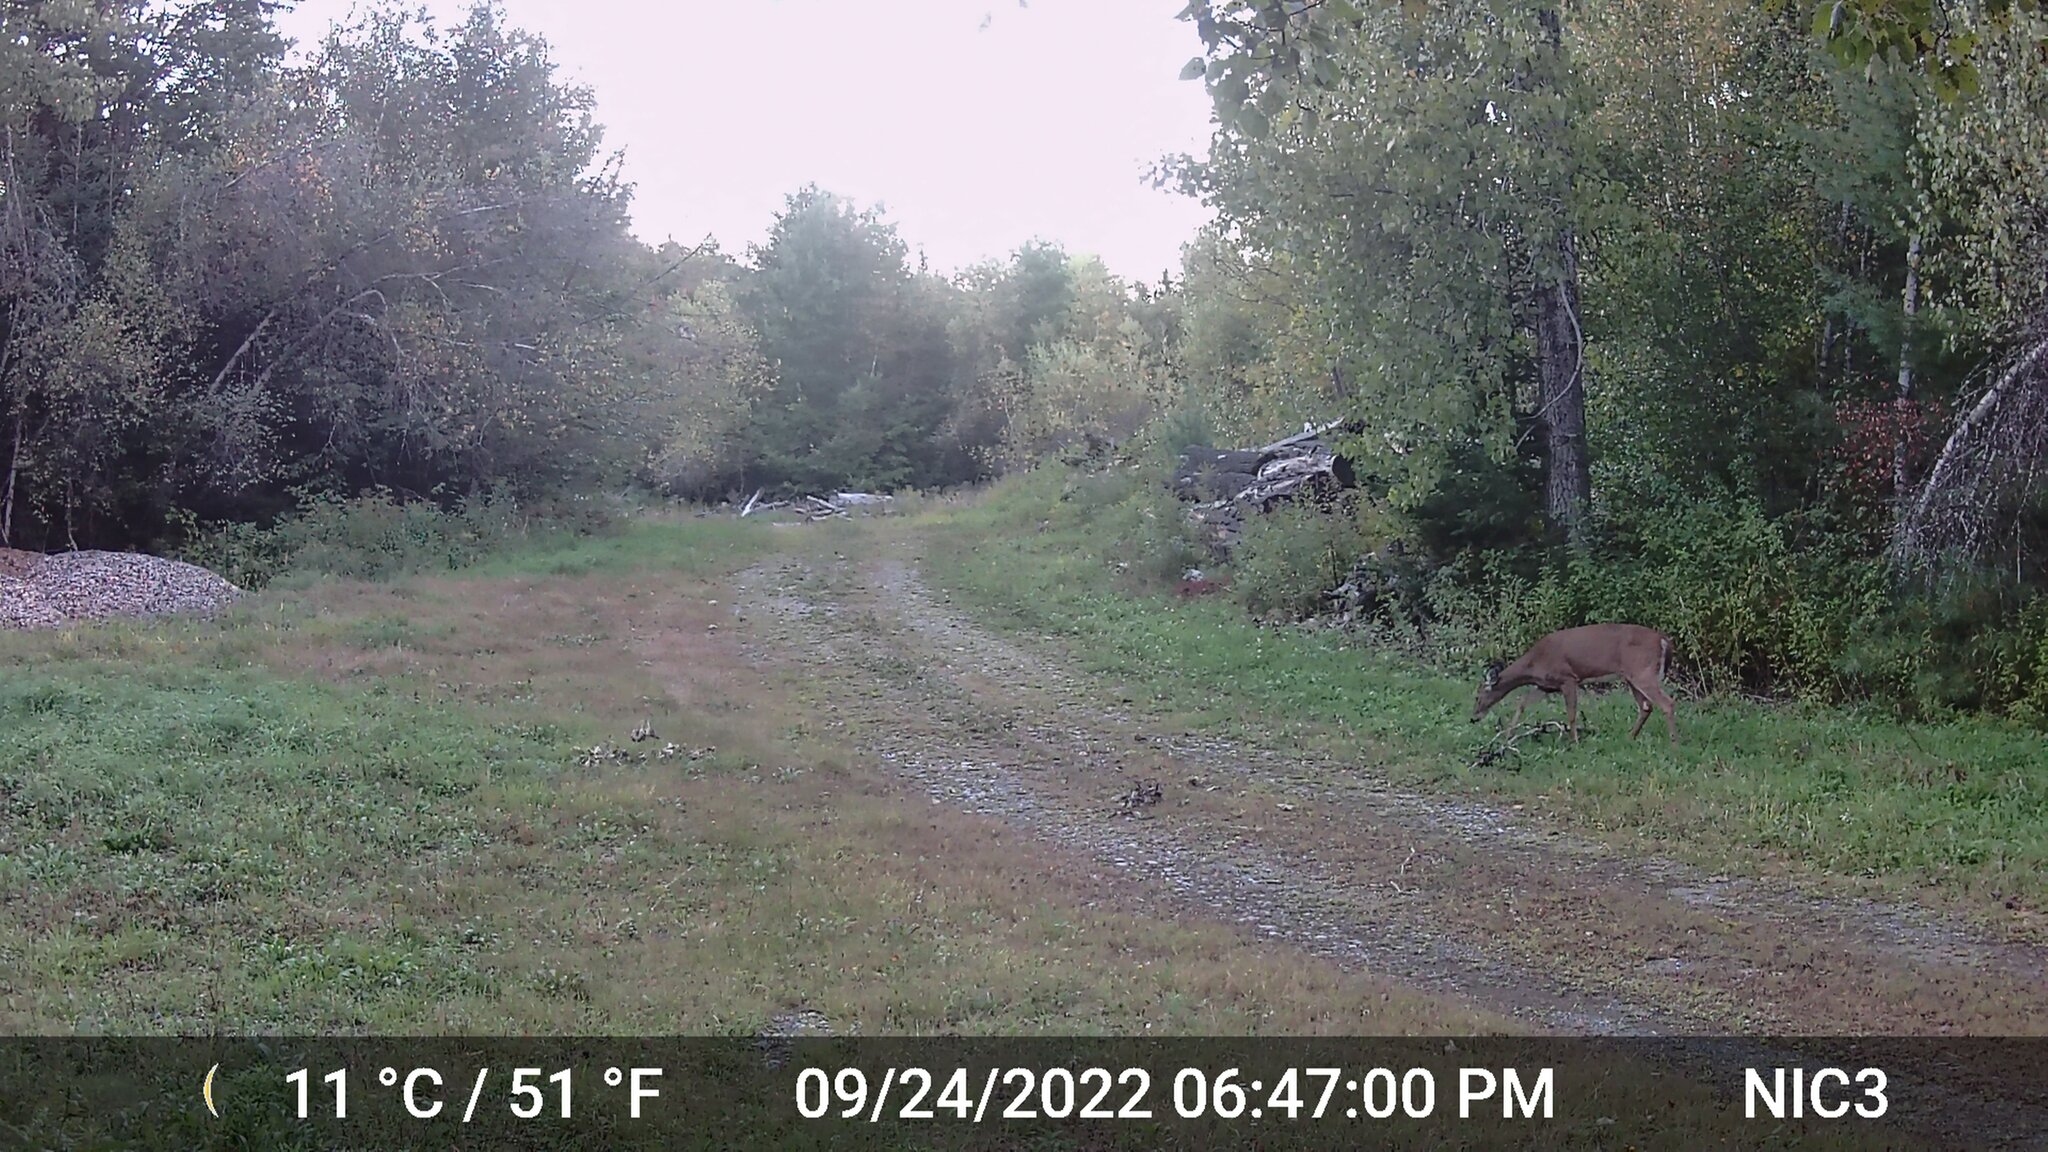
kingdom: Animalia
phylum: Chordata
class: Mammalia
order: Artiodactyla
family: Cervidae
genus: Odocoileus
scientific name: Odocoileus virginianus
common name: White-tailed deer
